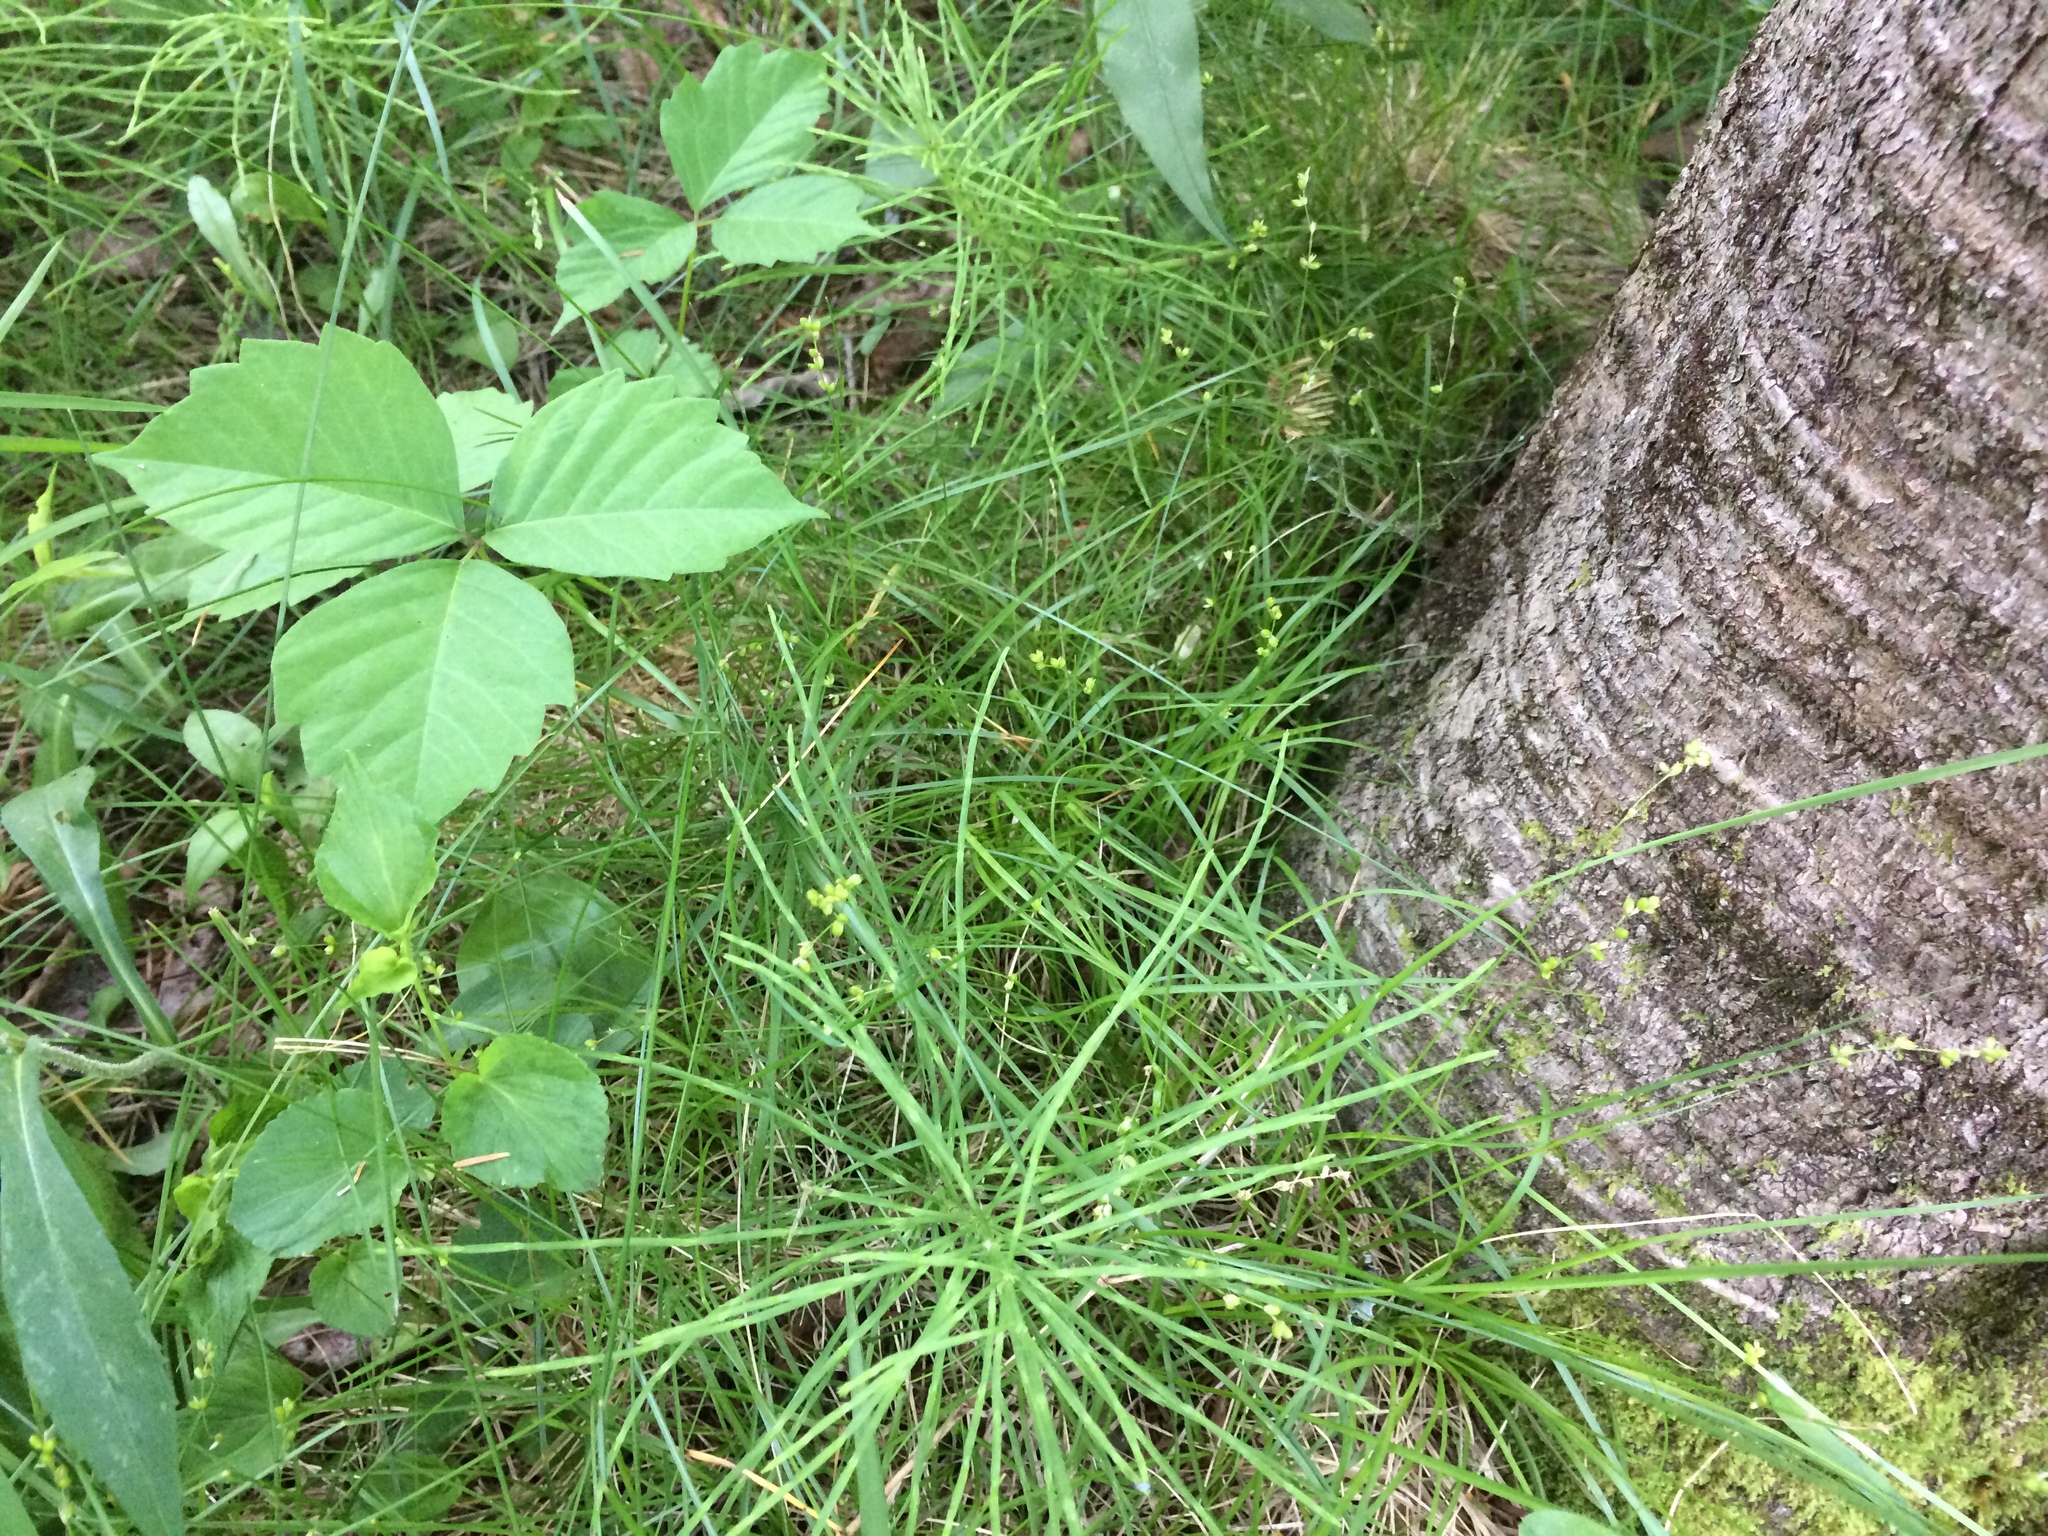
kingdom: Plantae
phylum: Tracheophyta
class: Liliopsida
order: Poales
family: Cyperaceae
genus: Carex
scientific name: Carex disperma
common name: Short-leaved sedge
